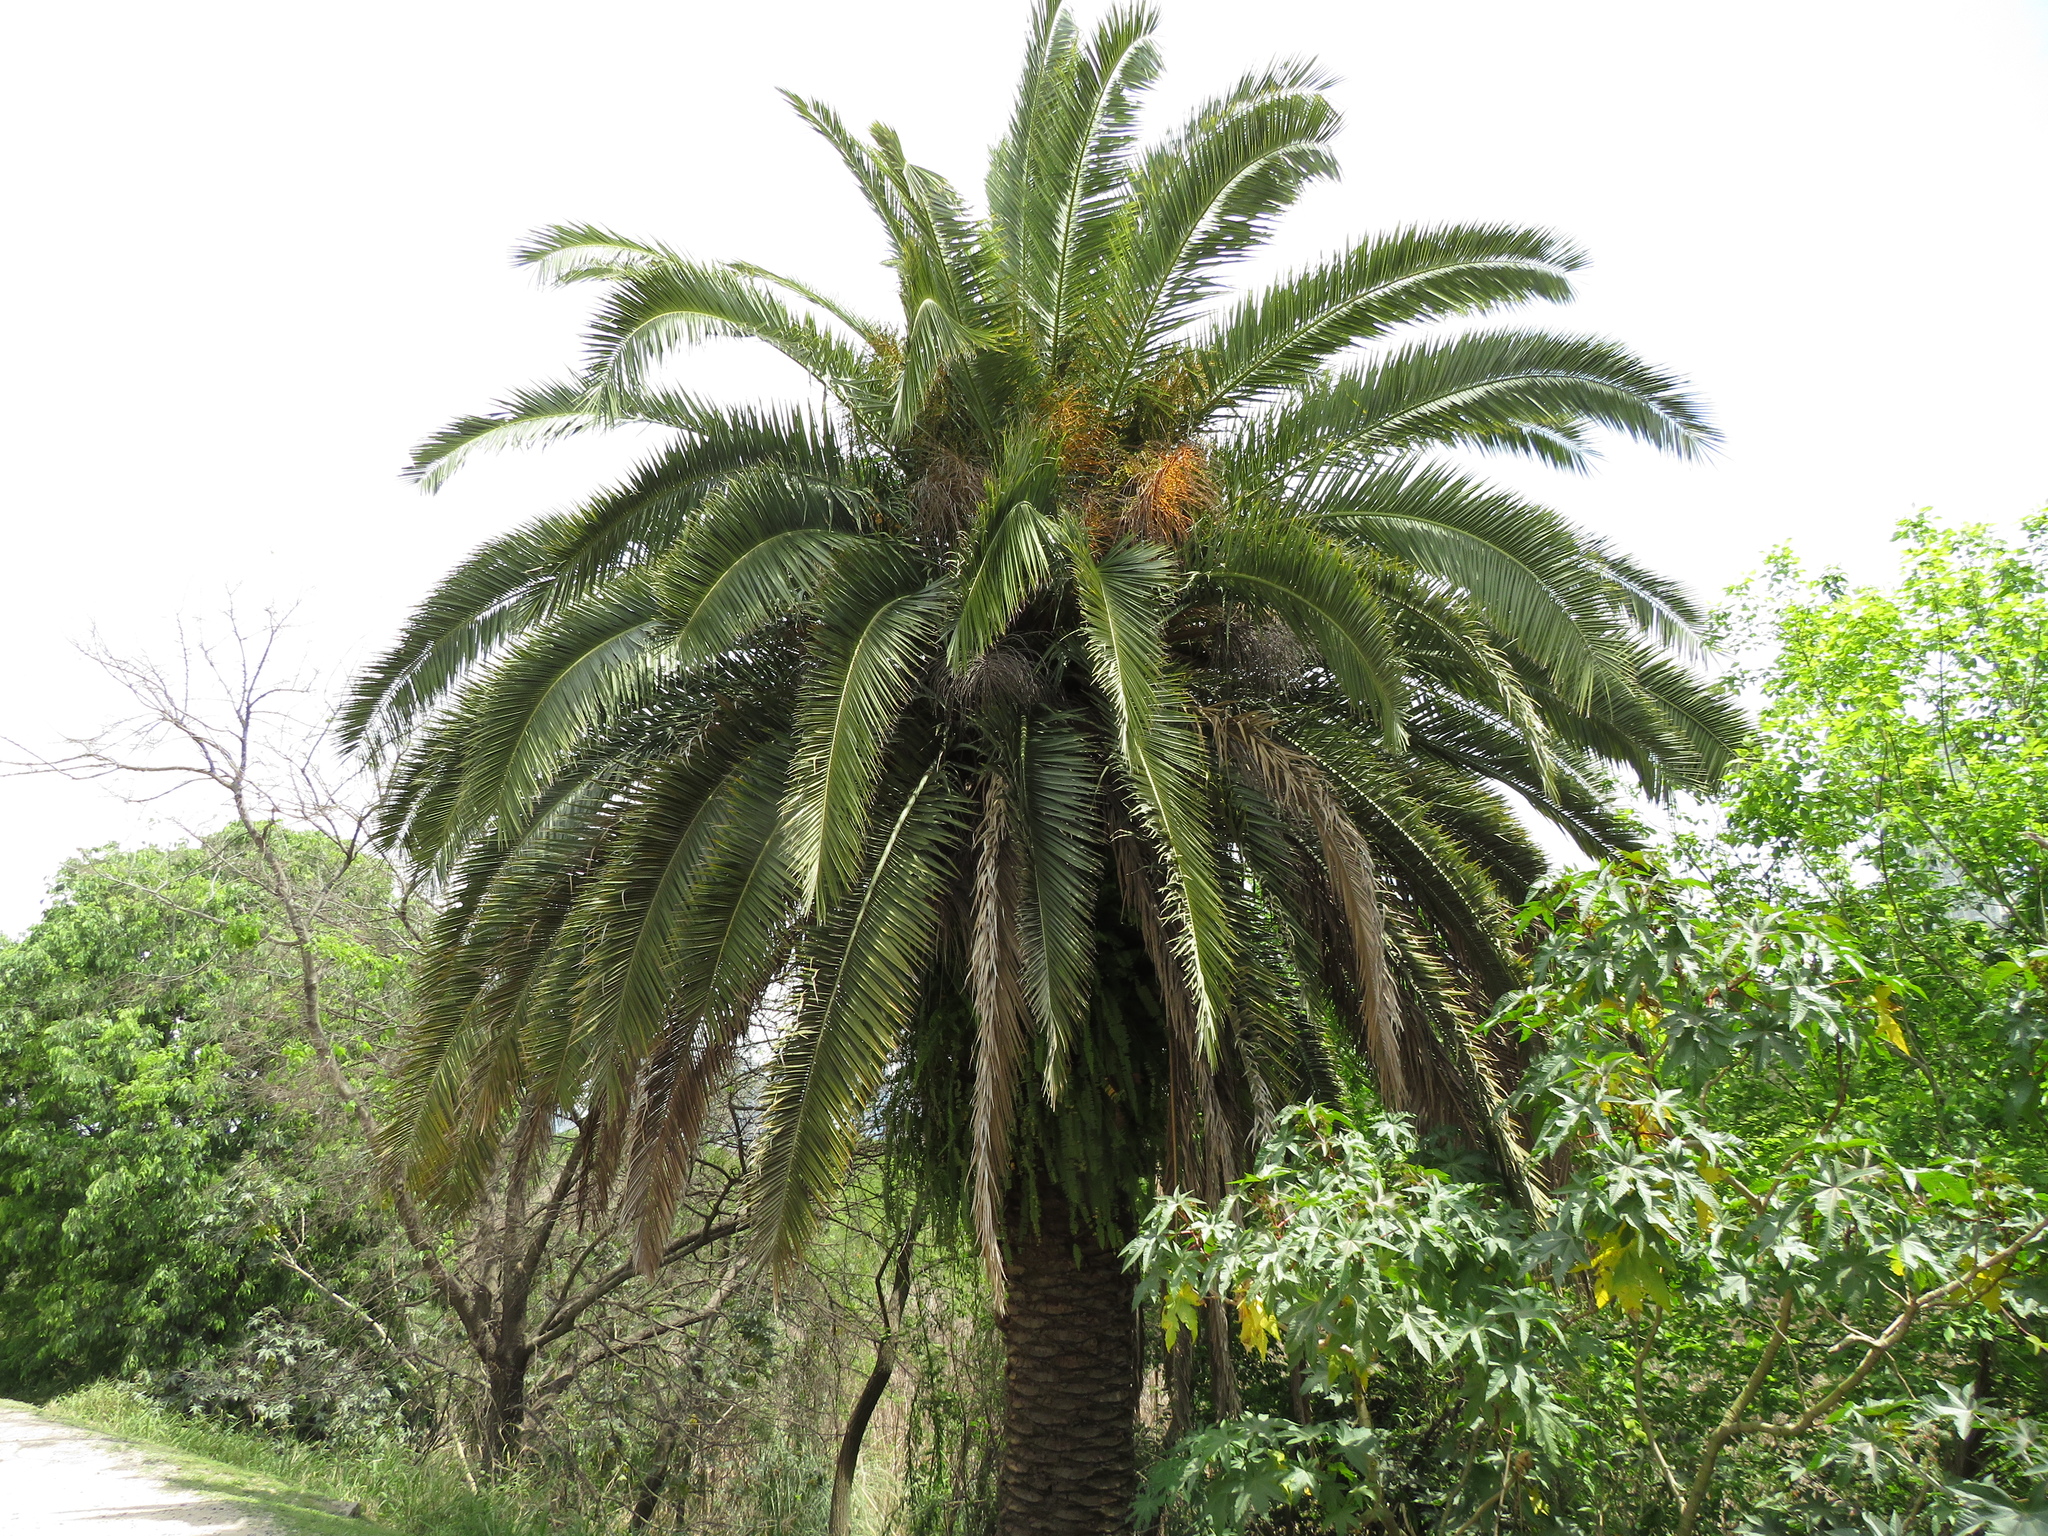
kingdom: Plantae
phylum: Tracheophyta
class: Liliopsida
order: Arecales
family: Arecaceae
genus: Phoenix
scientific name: Phoenix canariensis
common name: Canary island date palm
